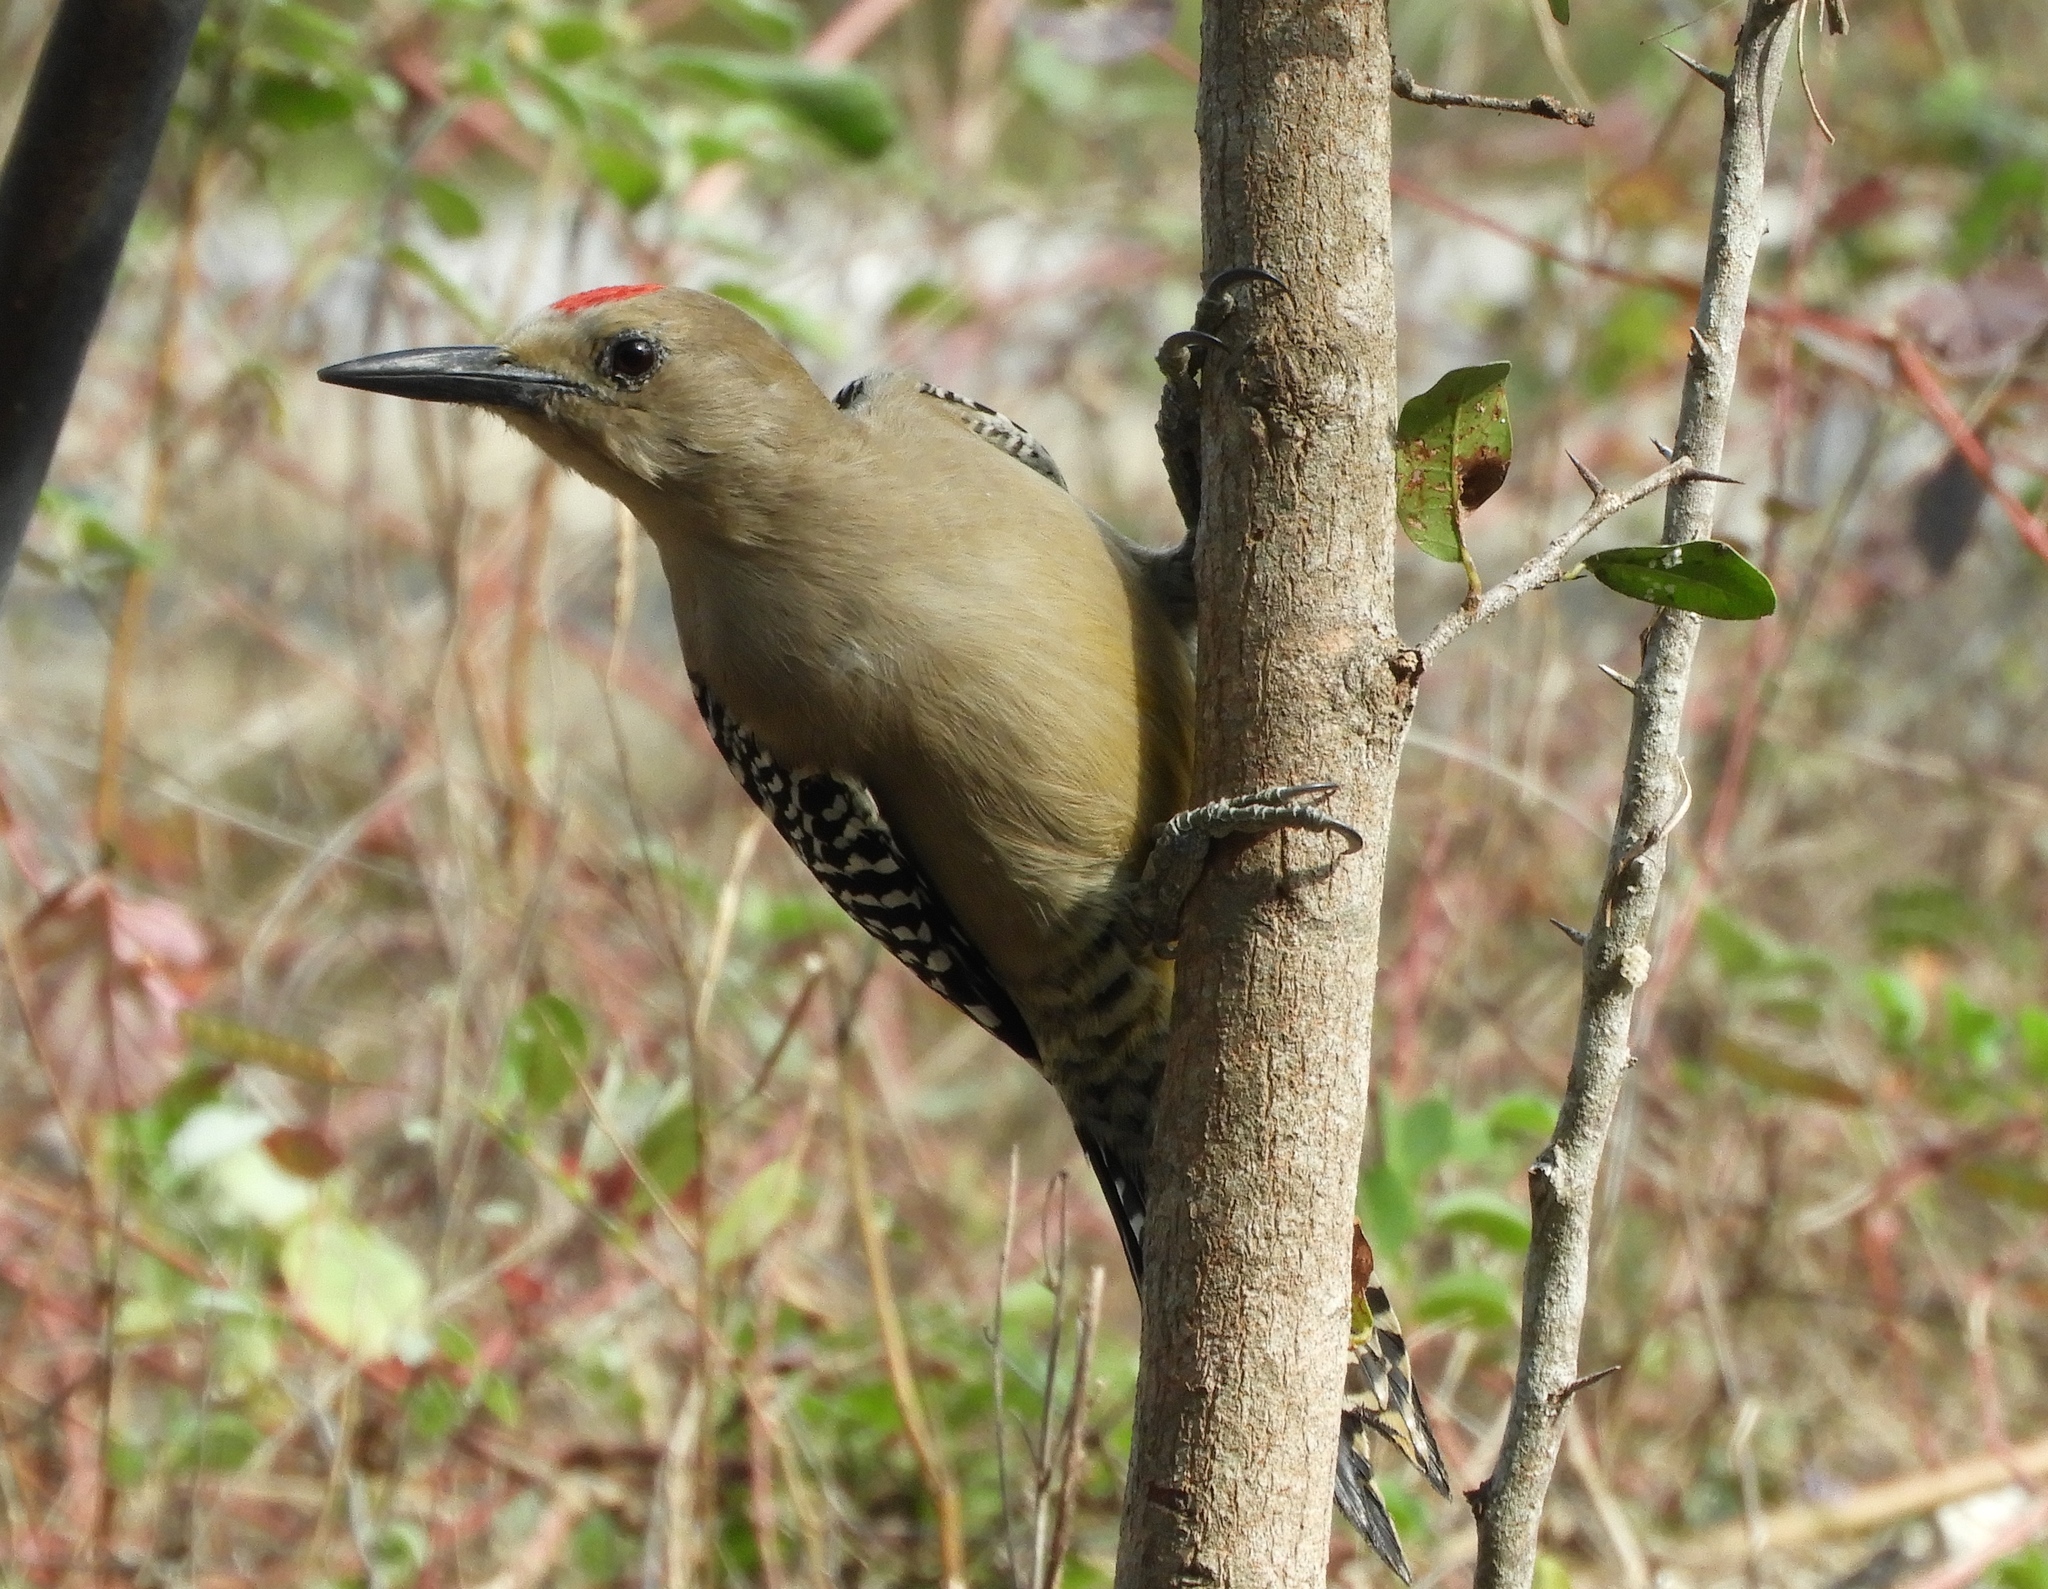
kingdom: Animalia
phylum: Chordata
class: Aves
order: Piciformes
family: Picidae
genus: Melanerpes
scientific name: Melanerpes uropygialis
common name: Gila woodpecker
